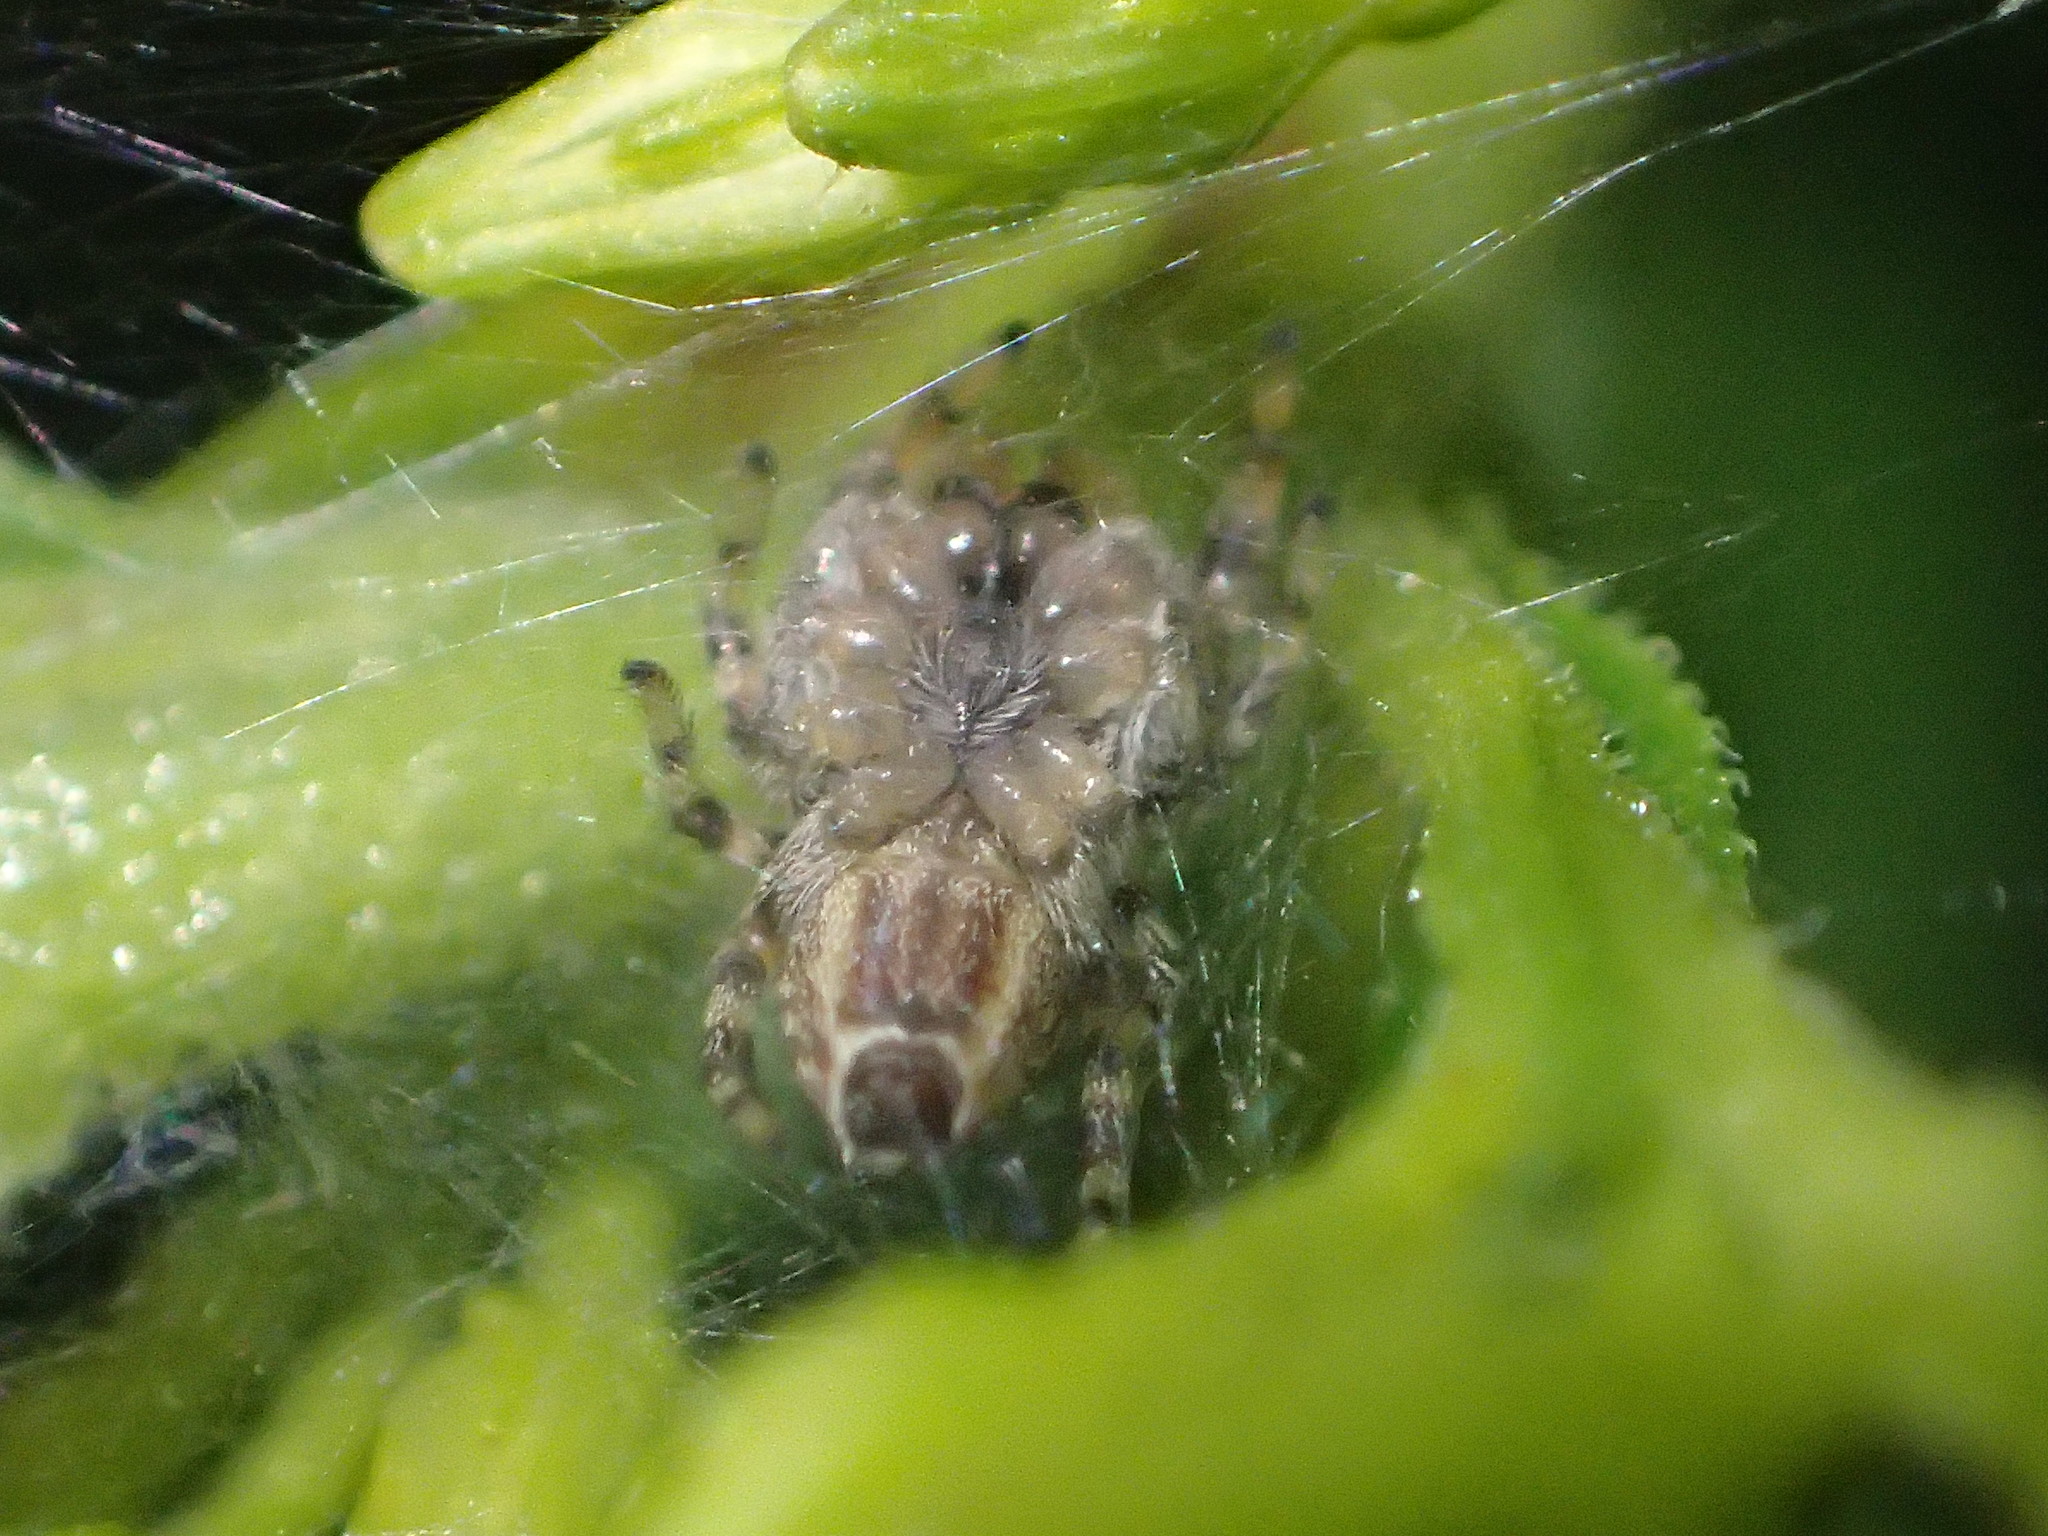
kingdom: Animalia
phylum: Arthropoda
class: Arachnida
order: Araneae
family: Salticidae
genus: Pelegrina
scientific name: Pelegrina galathea
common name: Jumping spiders
